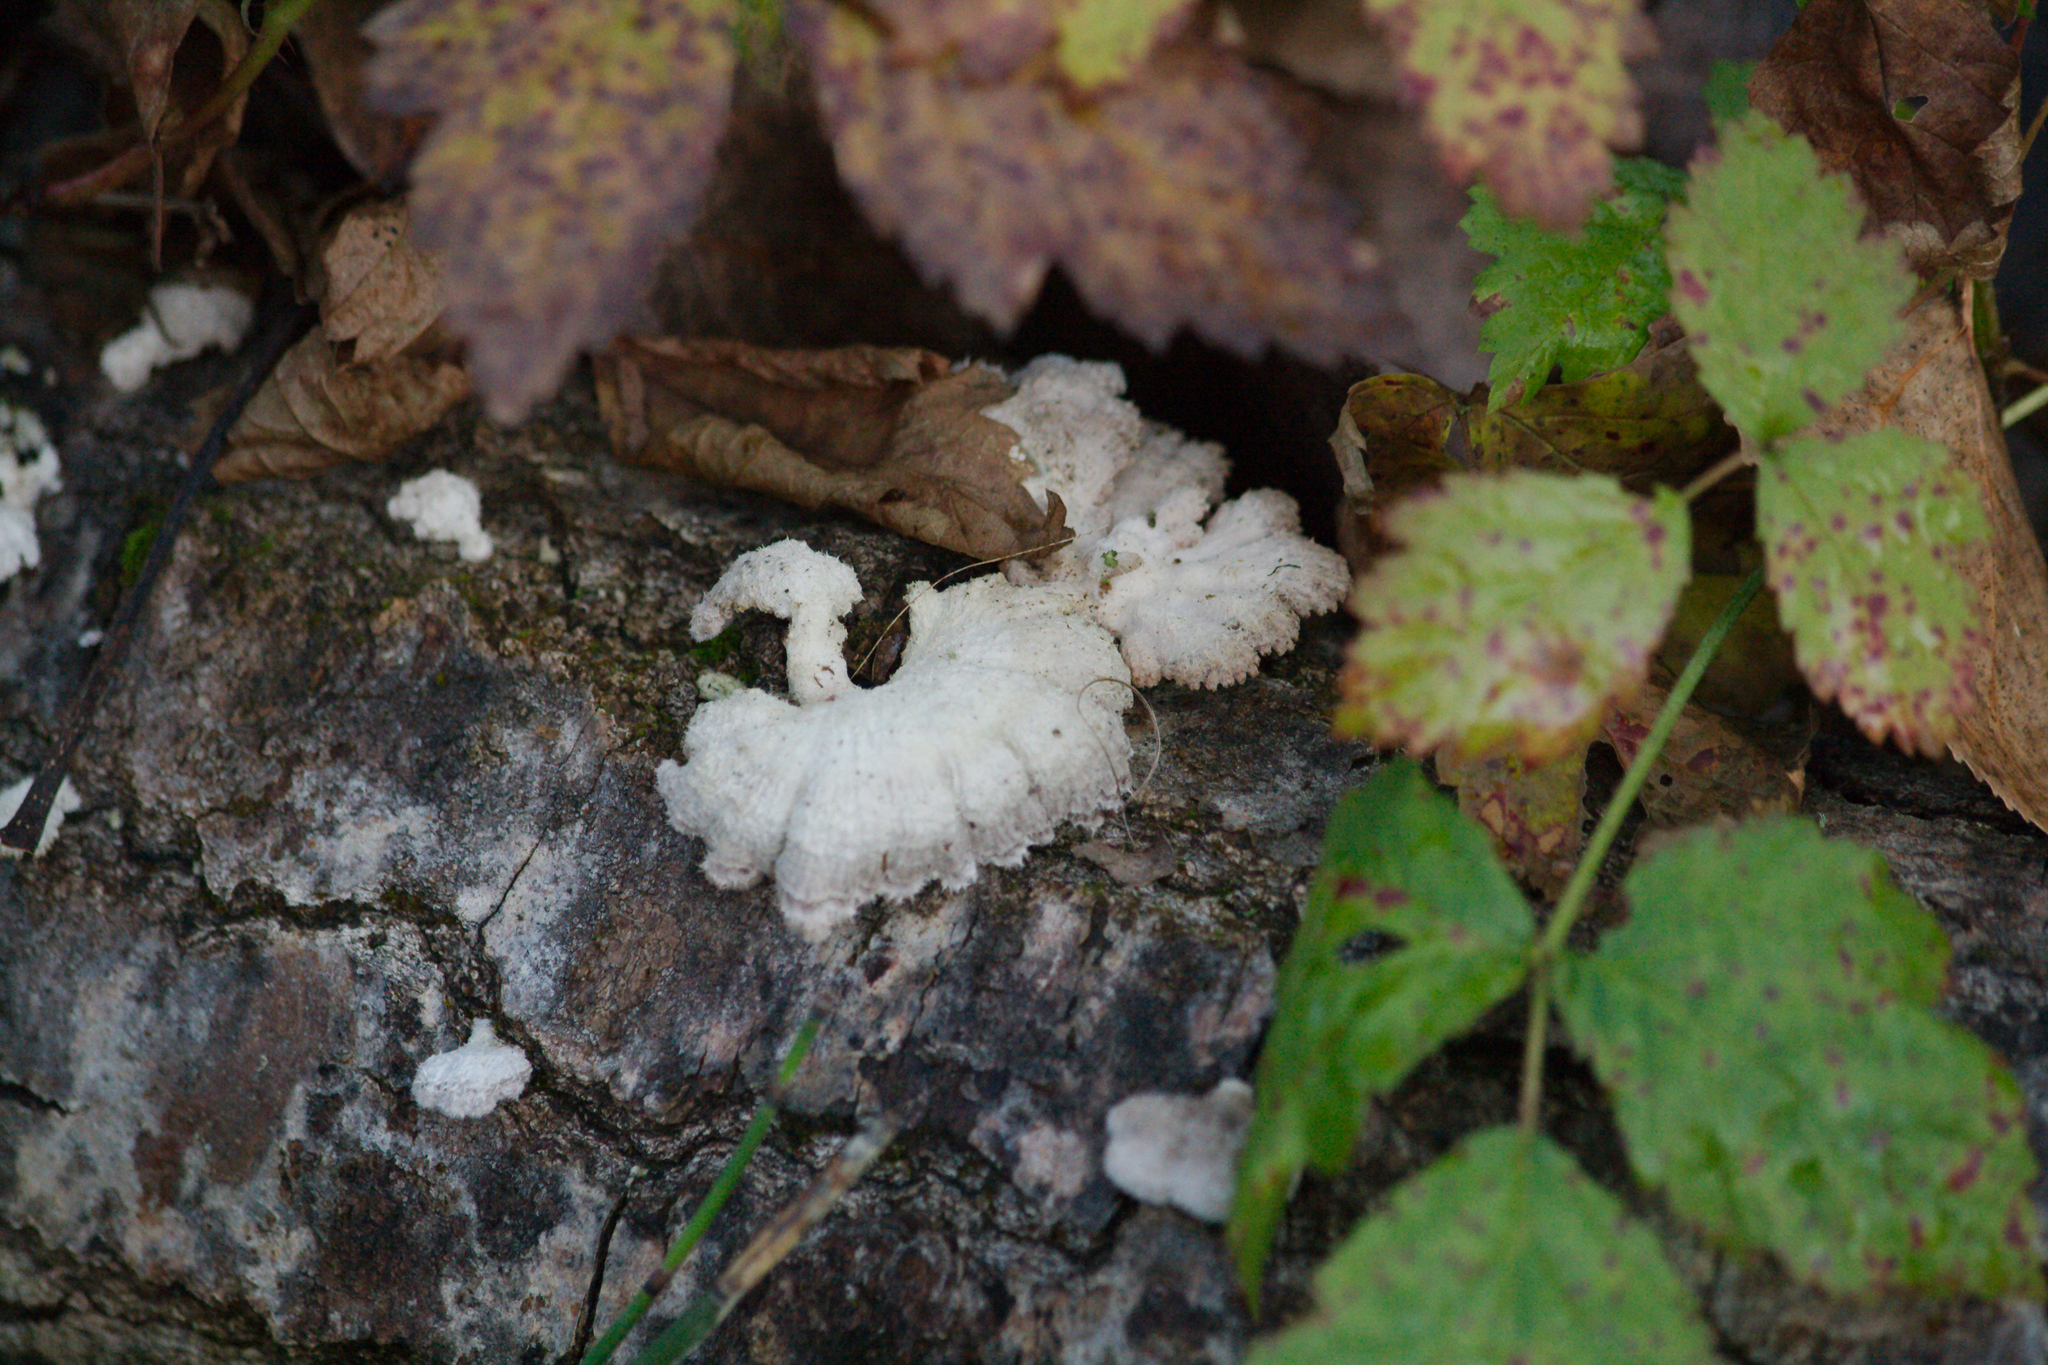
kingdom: Fungi
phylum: Basidiomycota
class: Agaricomycetes
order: Agaricales
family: Schizophyllaceae
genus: Schizophyllum
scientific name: Schizophyllum commune
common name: Common porecrust
